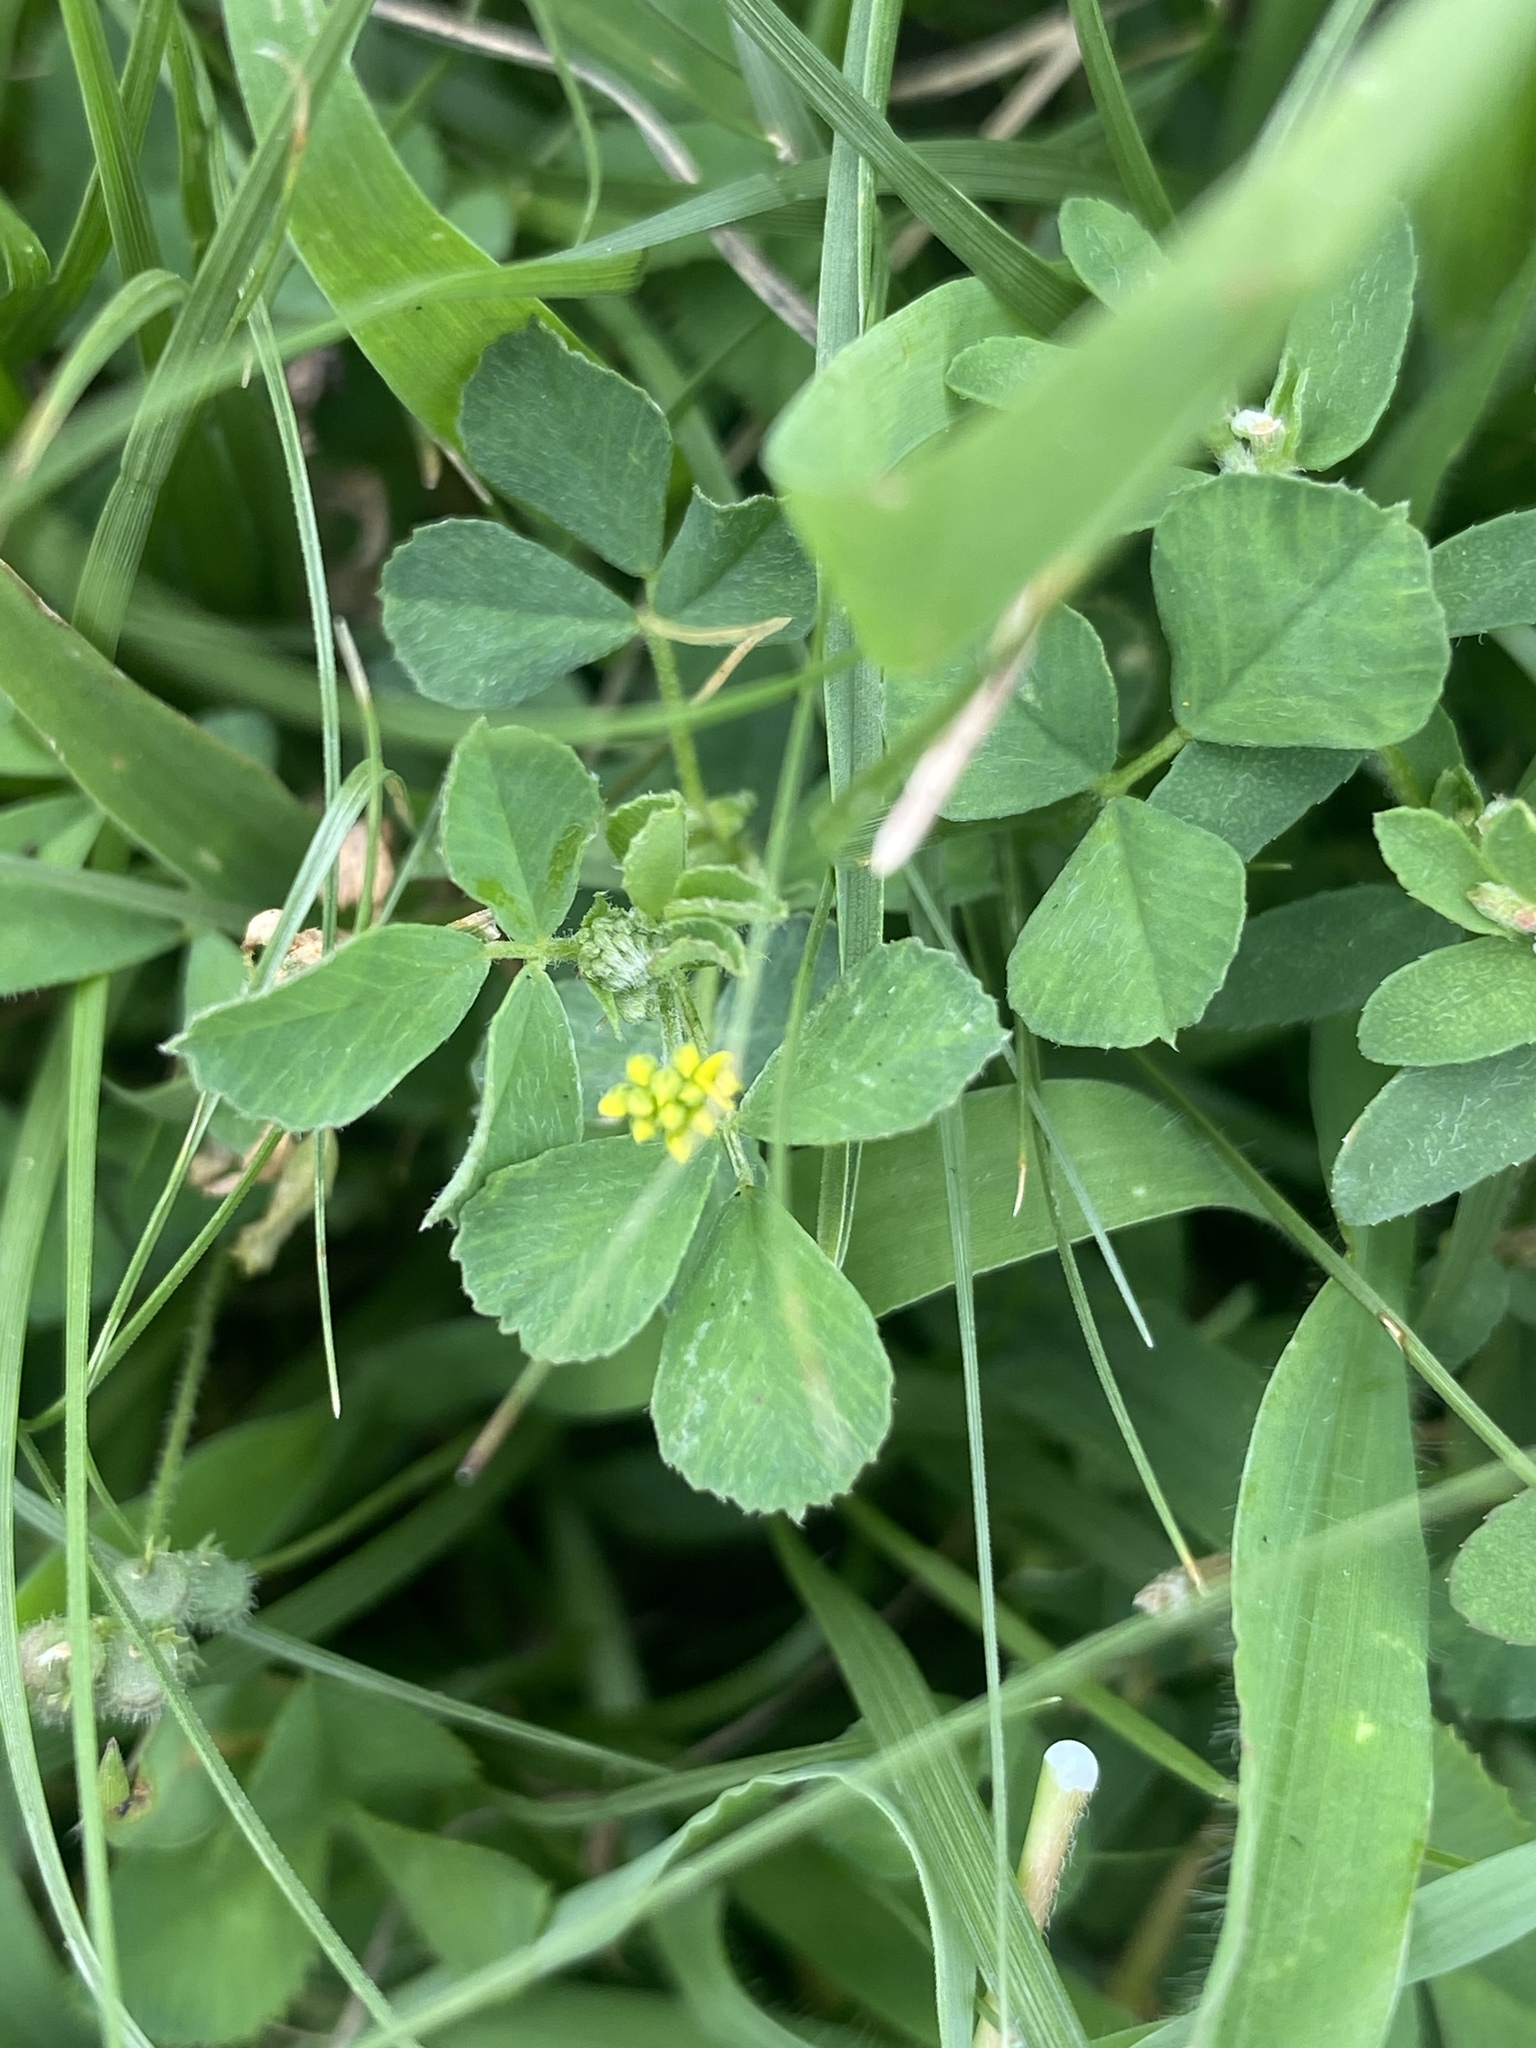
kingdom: Plantae
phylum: Tracheophyta
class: Magnoliopsida
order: Fabales
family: Fabaceae
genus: Medicago
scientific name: Medicago lupulina
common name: Black medick
